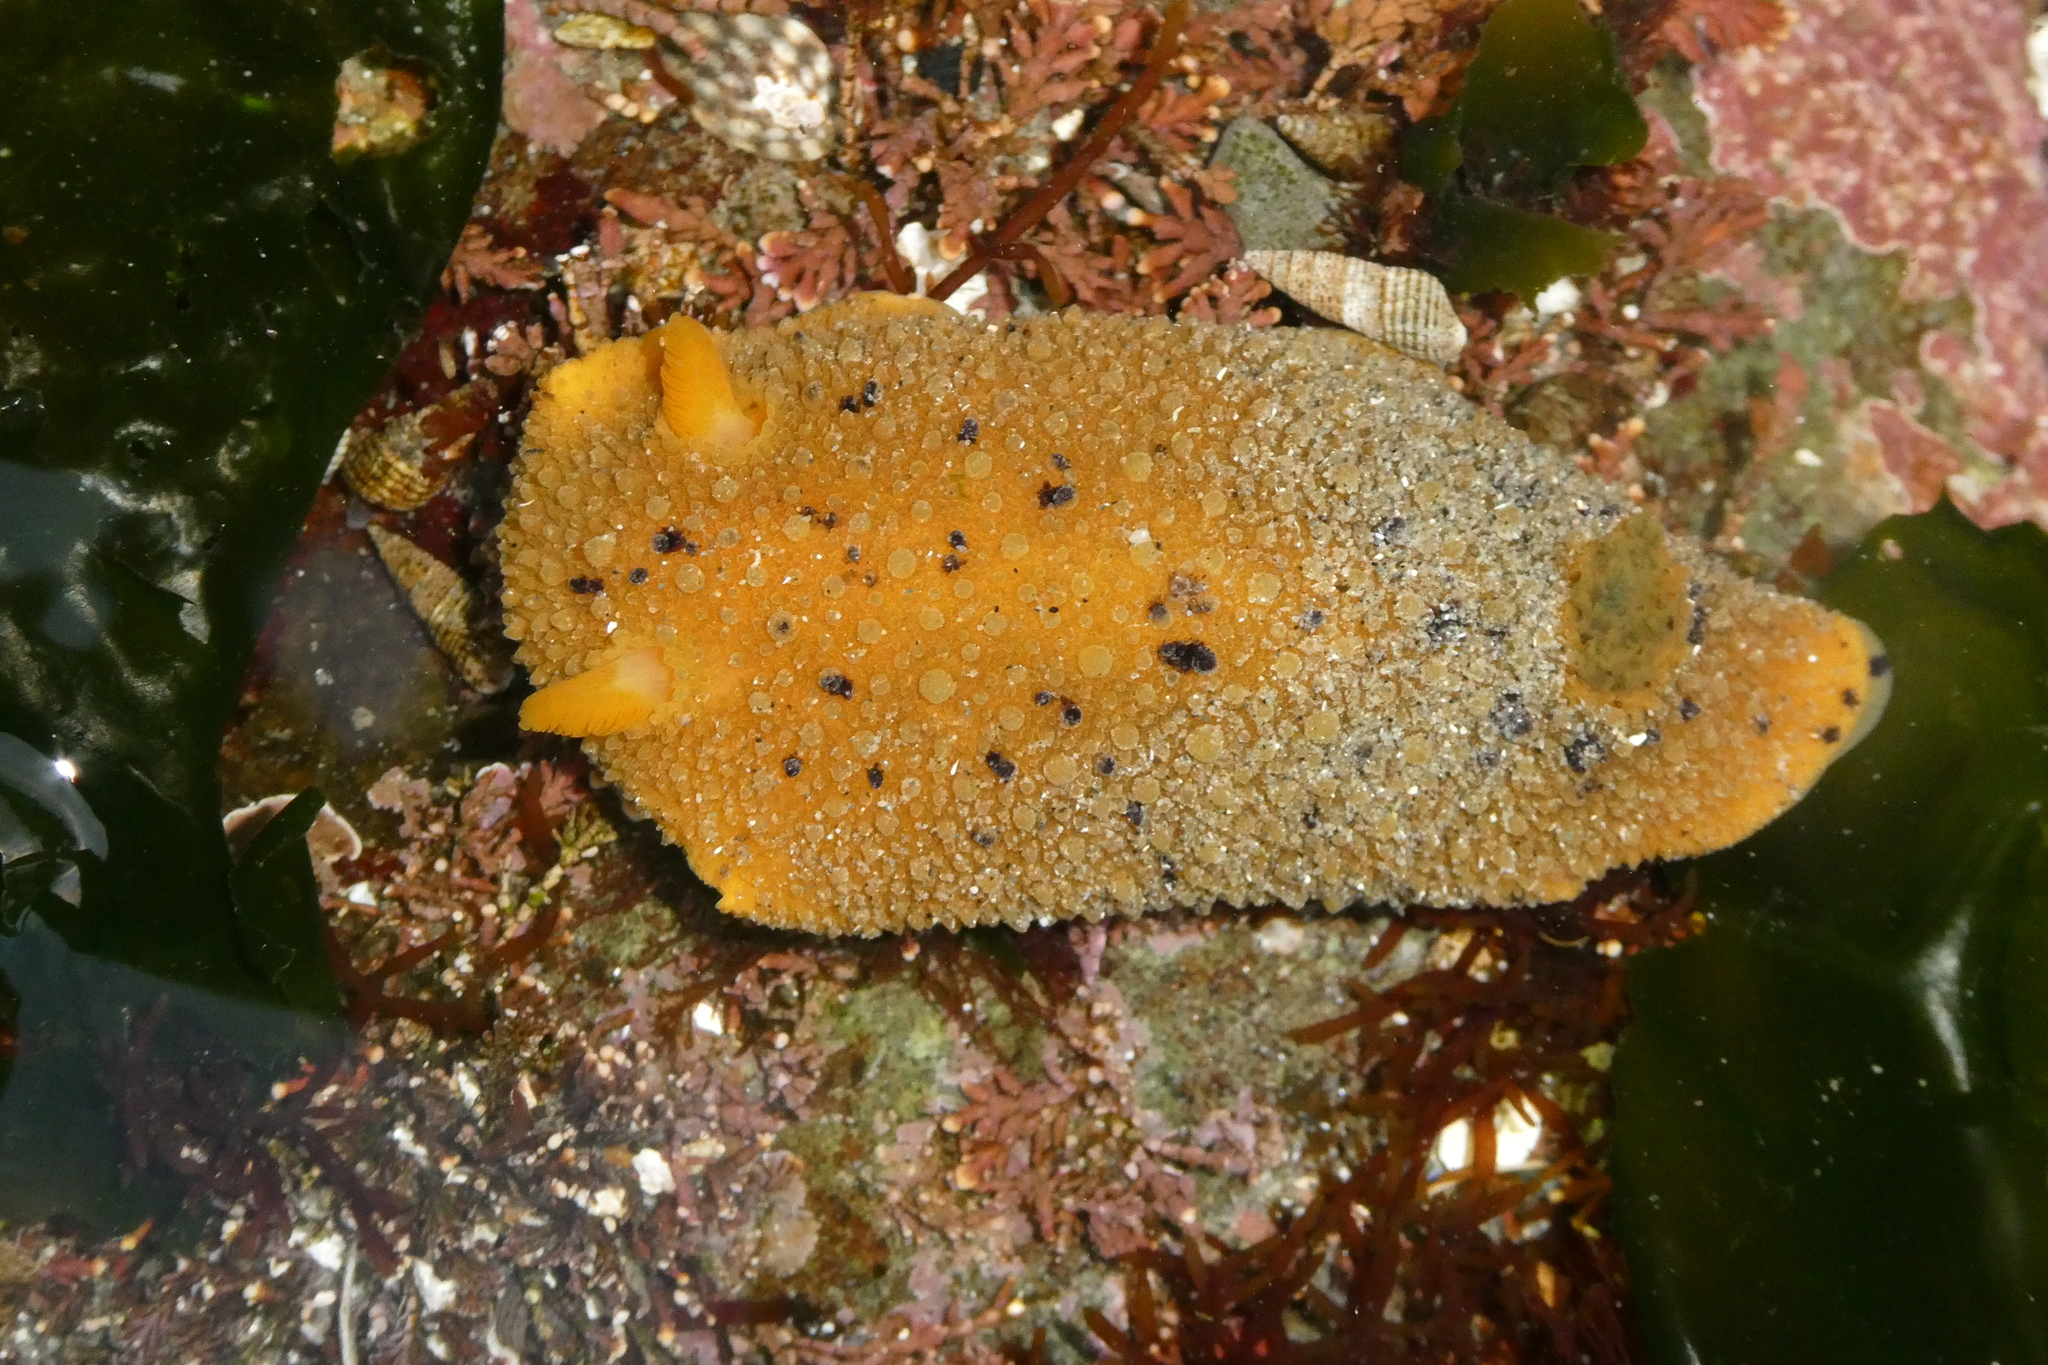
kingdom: Animalia
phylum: Mollusca
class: Gastropoda
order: Nudibranchia
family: Dorididae
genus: Doris
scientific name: Doris montereyensis
